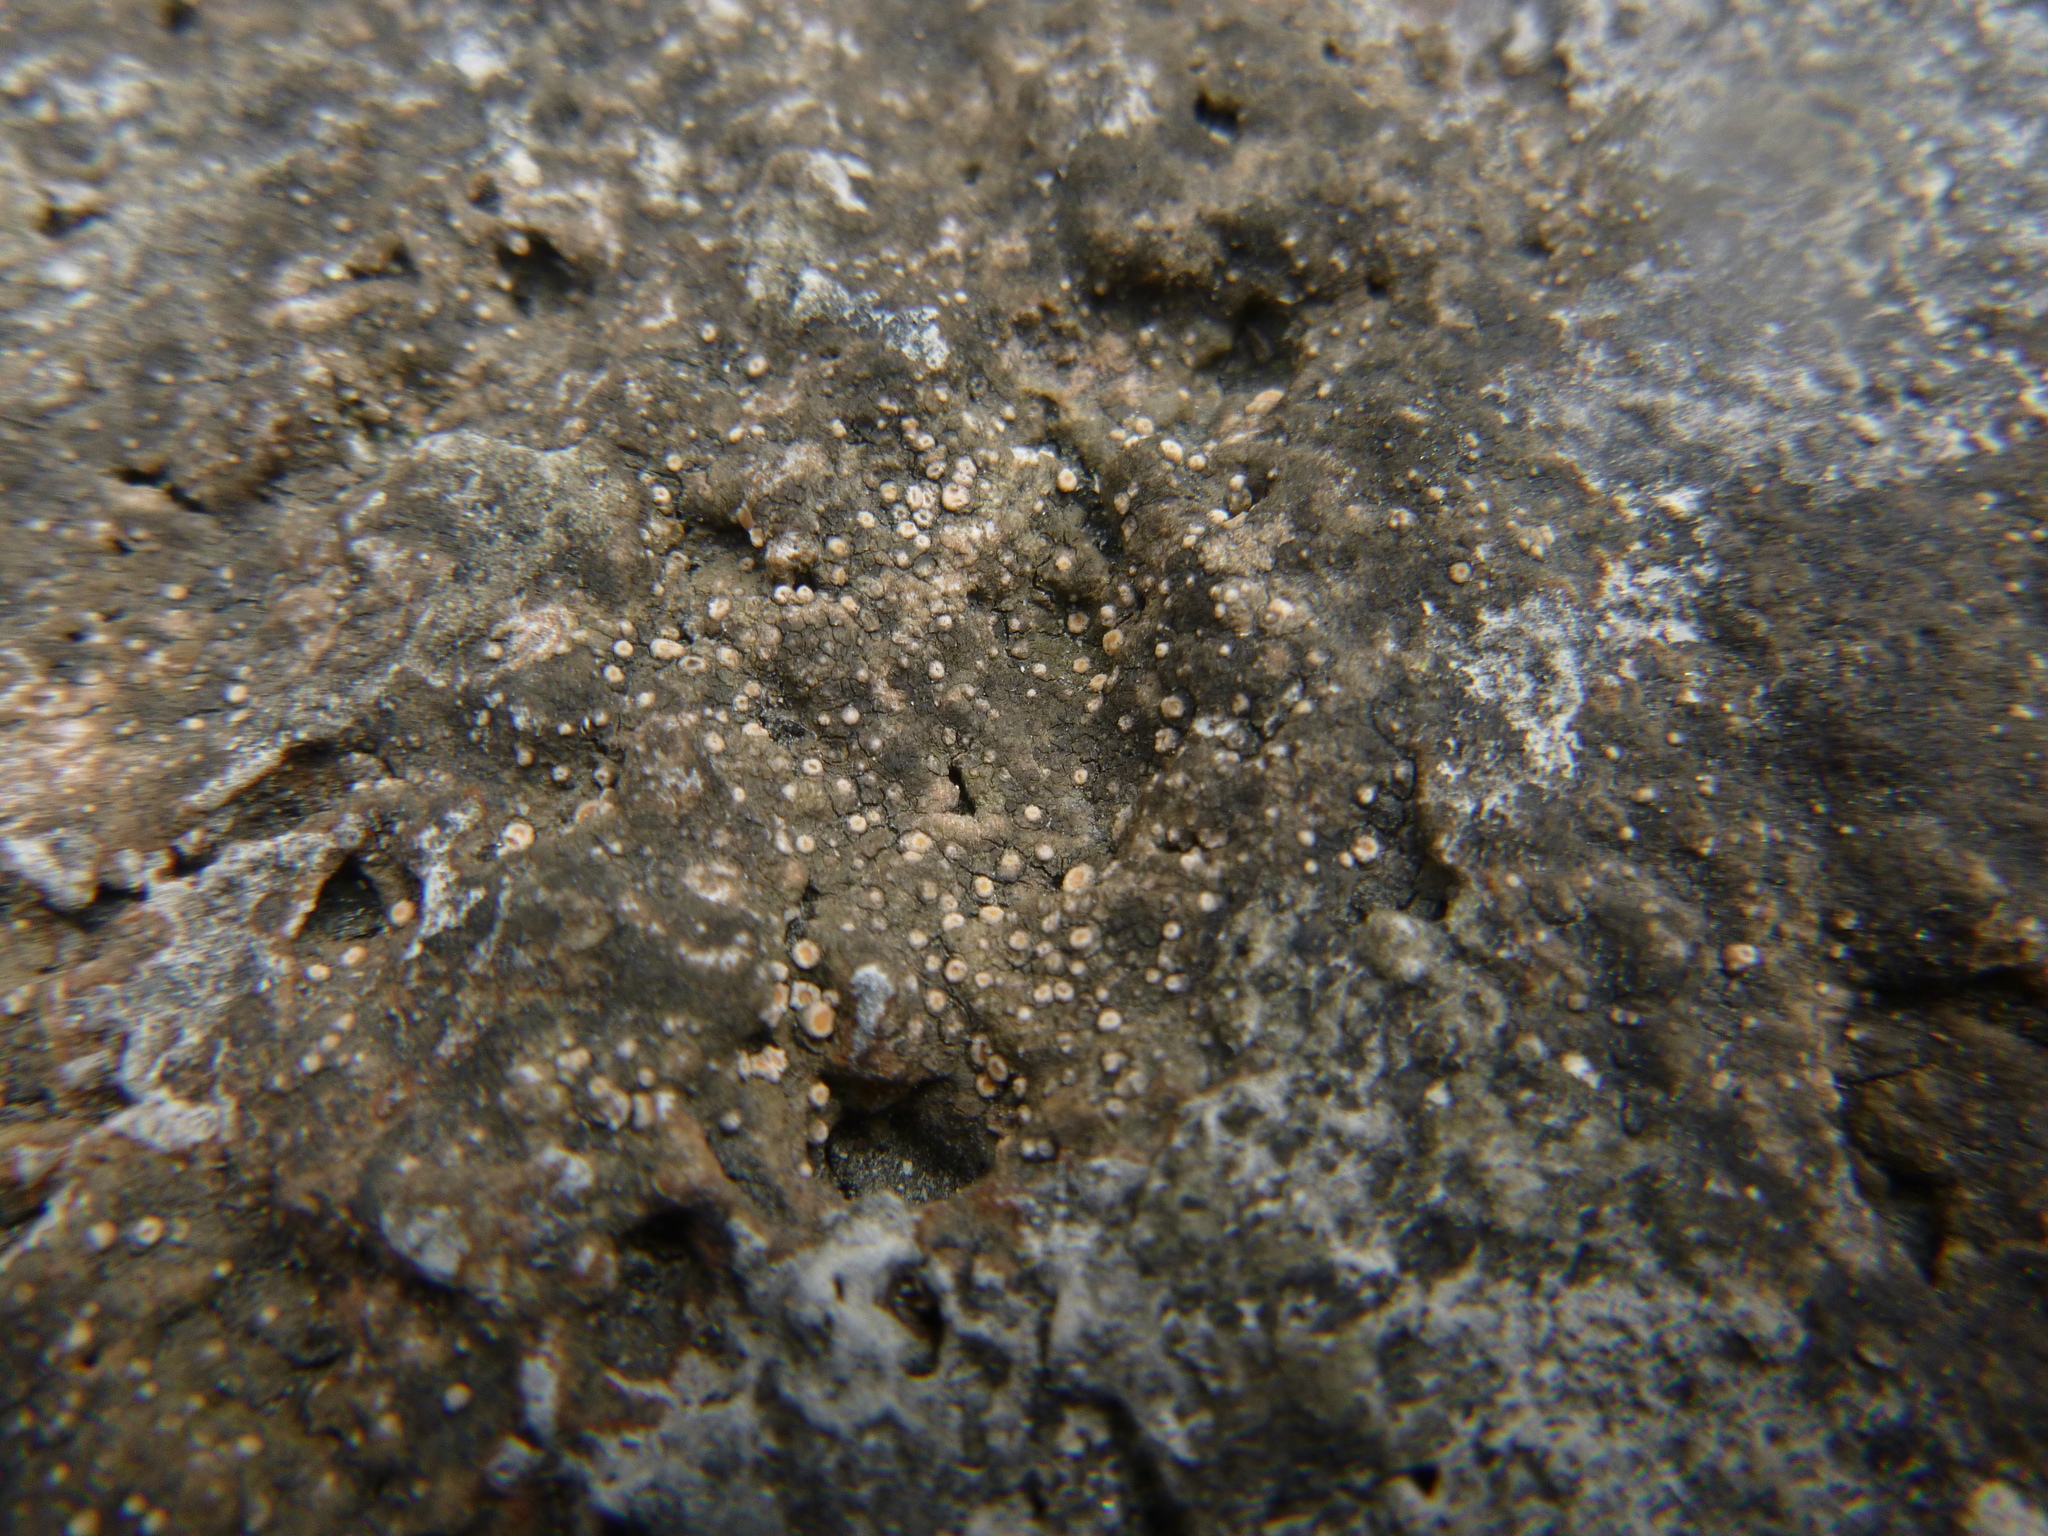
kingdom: Fungi
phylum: Ascomycota
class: Lecanoromycetes
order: Gyalectales
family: Gyalectaceae
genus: Gyalecta
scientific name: Gyalecta jenensis
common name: Rock dimple lichen
